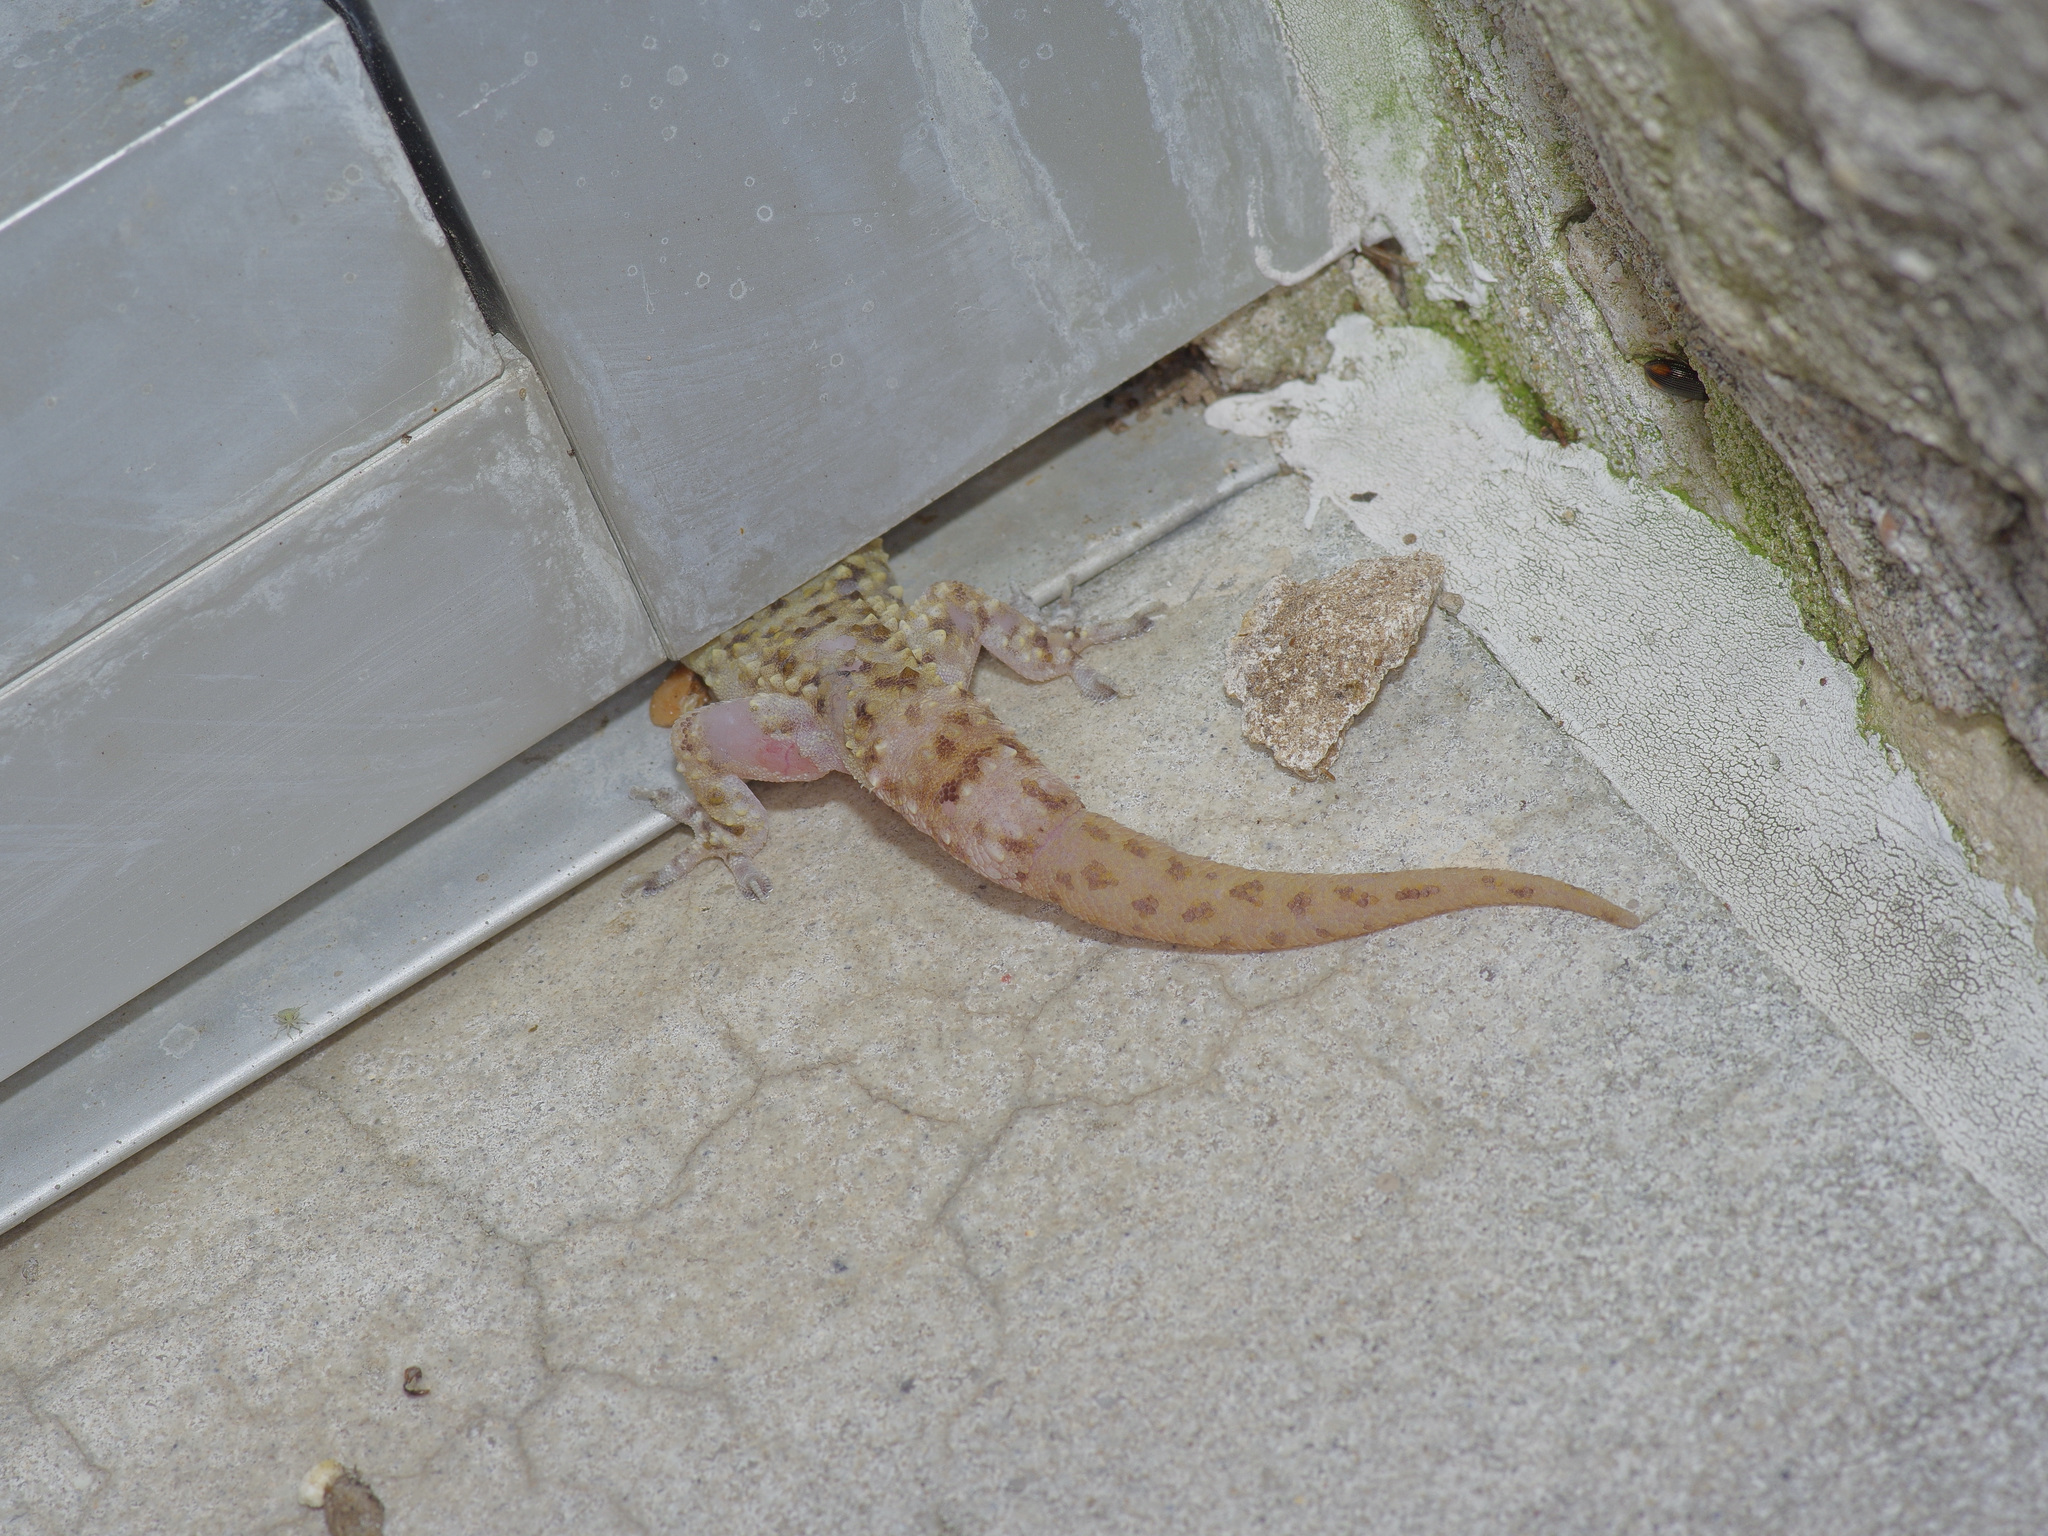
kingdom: Animalia
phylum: Chordata
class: Squamata
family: Gekkonidae
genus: Hemidactylus
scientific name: Hemidactylus turcicus
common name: Turkish gecko
